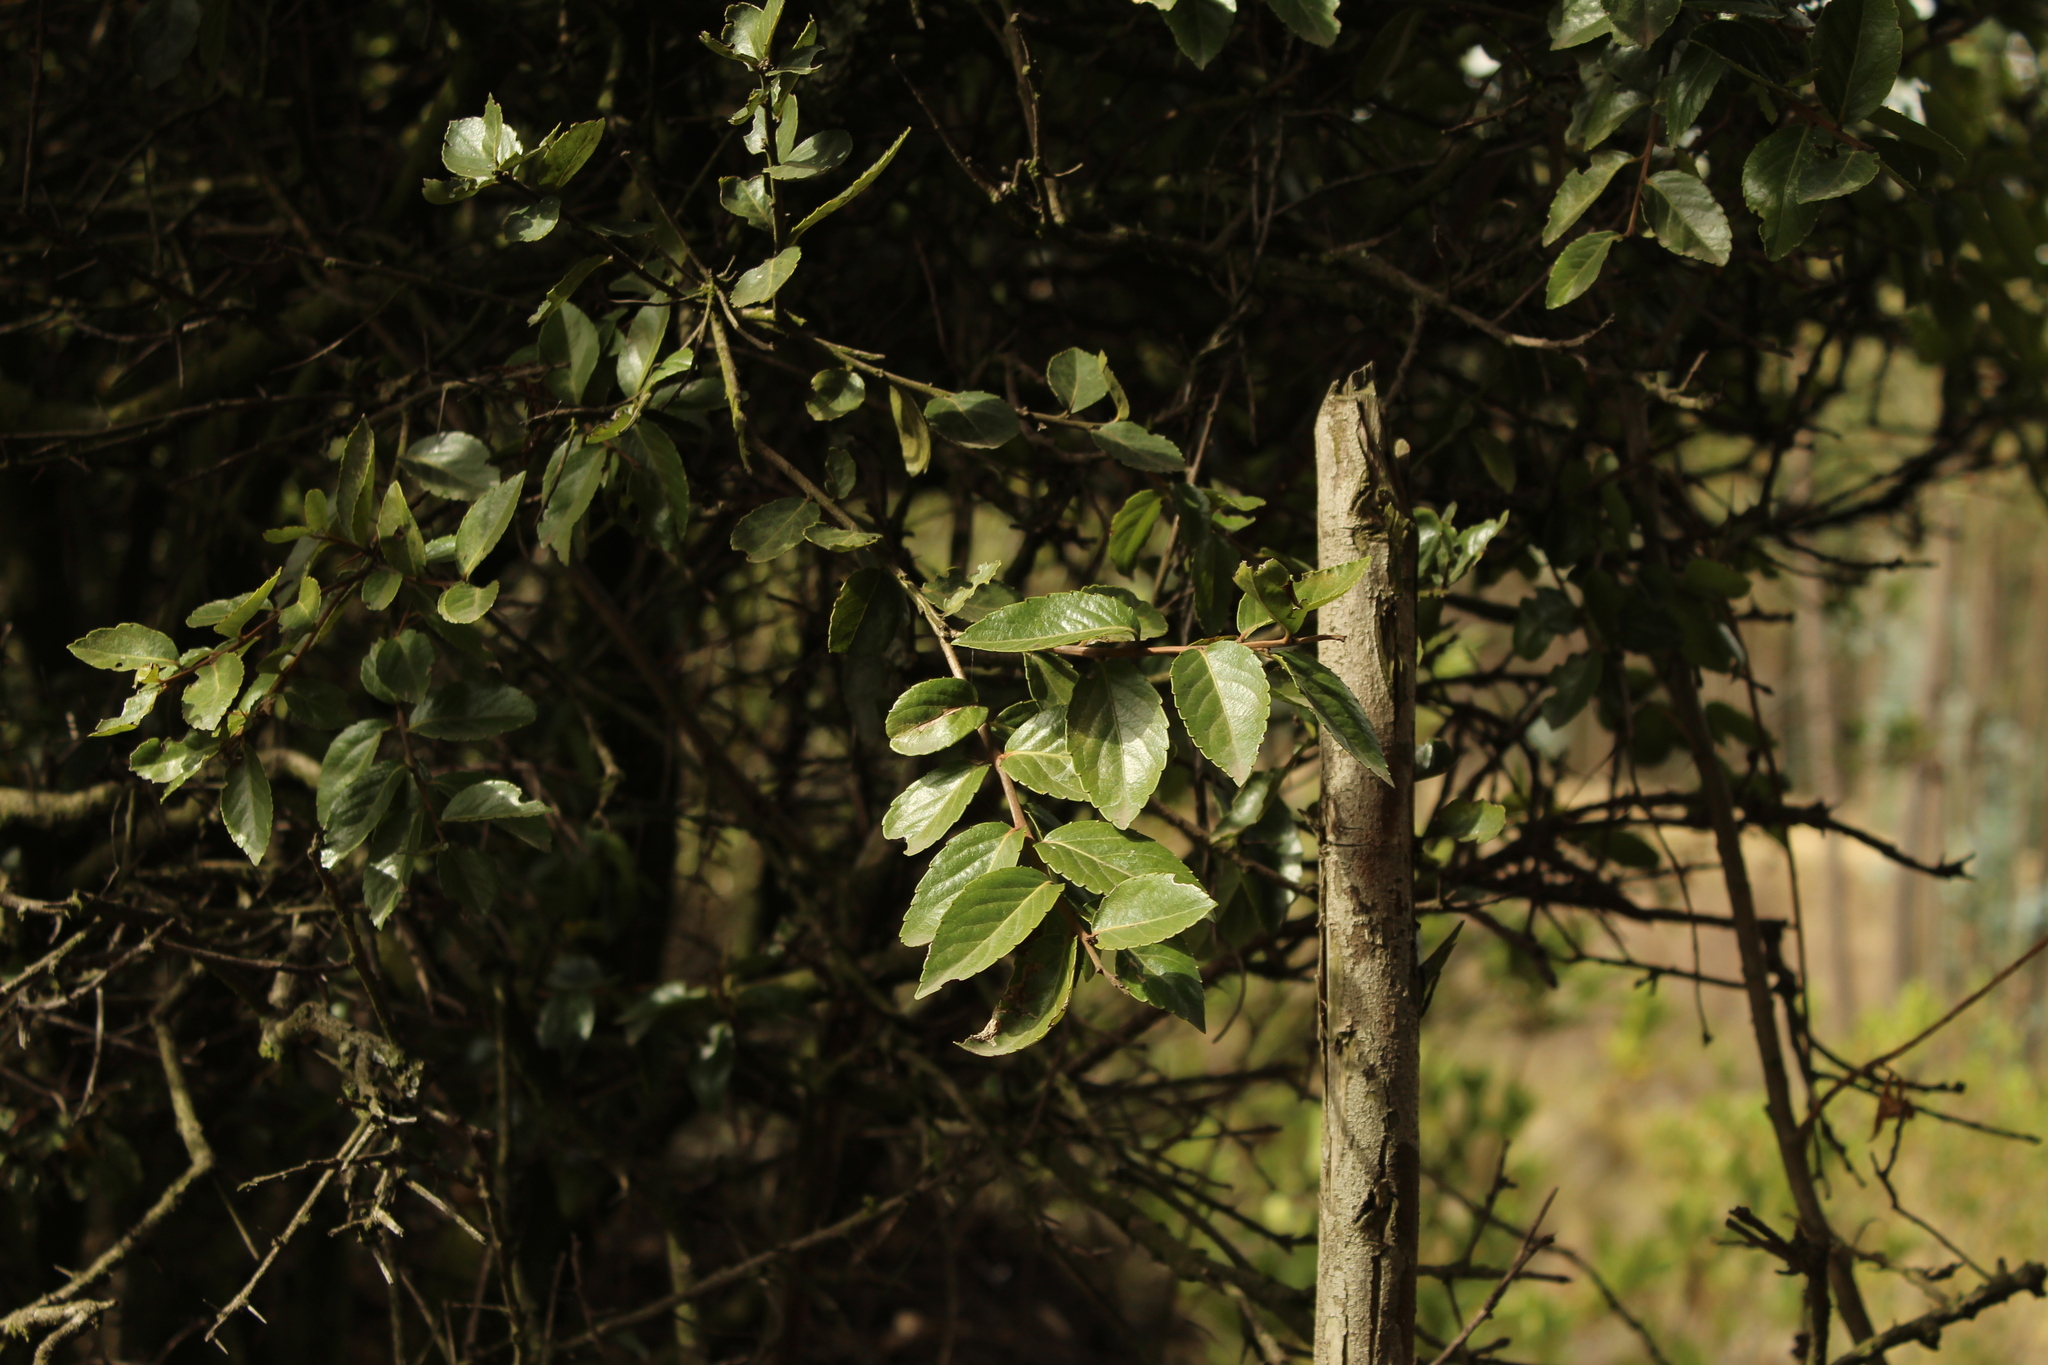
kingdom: Plantae
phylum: Tracheophyta
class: Magnoliopsida
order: Malpighiales
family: Salicaceae
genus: Xylosma
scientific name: Xylosma spiculifera
